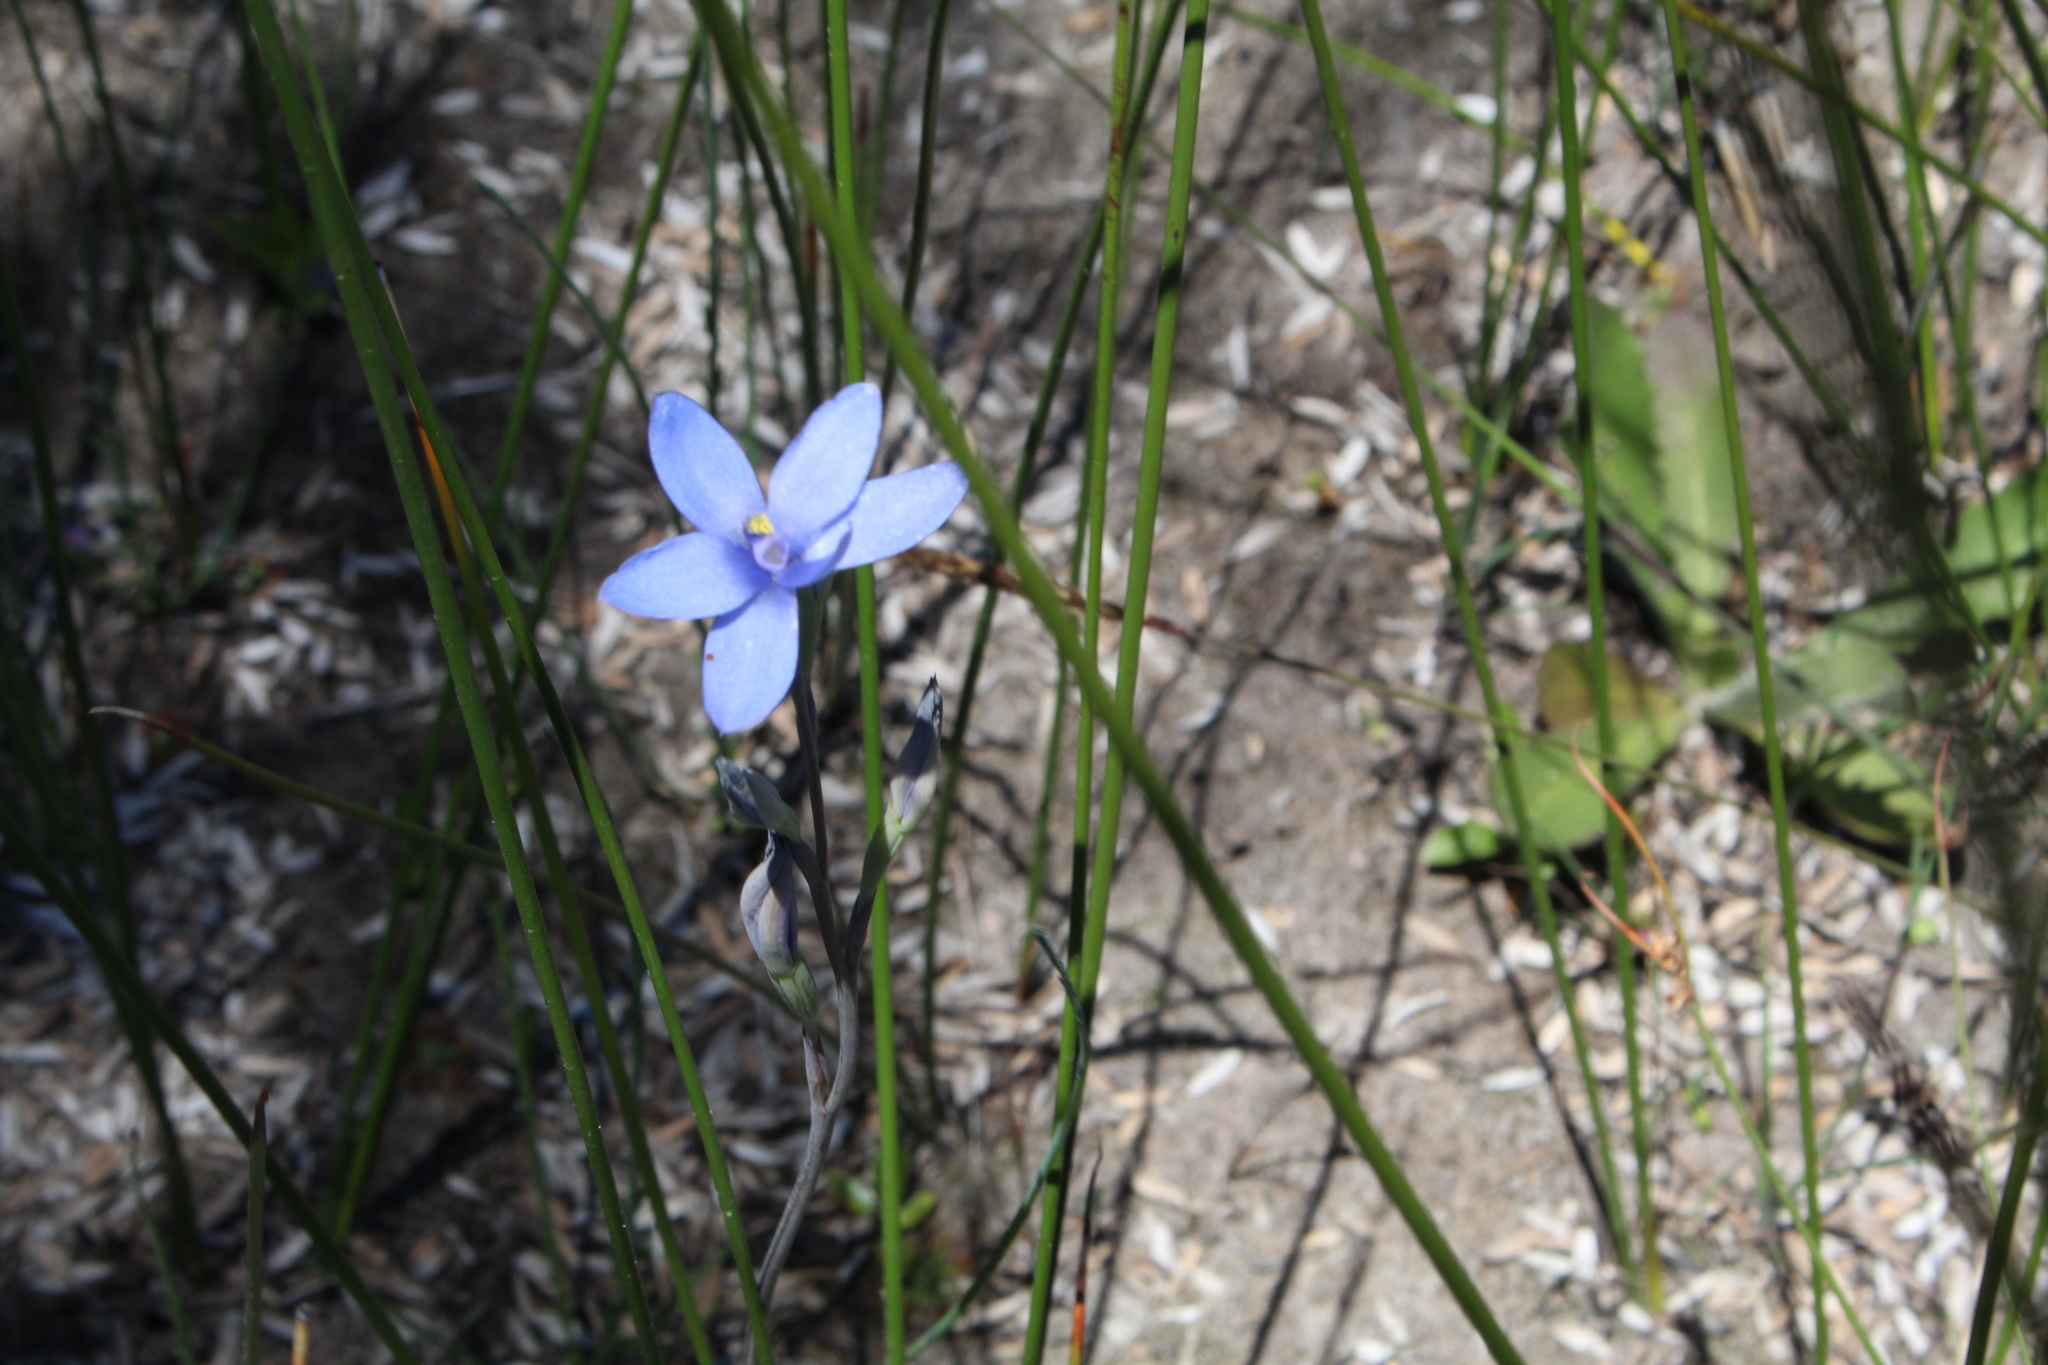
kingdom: Plantae
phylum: Tracheophyta
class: Liliopsida
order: Asparagales
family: Orchidaceae
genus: Thelymitra
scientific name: Thelymitra crinita
